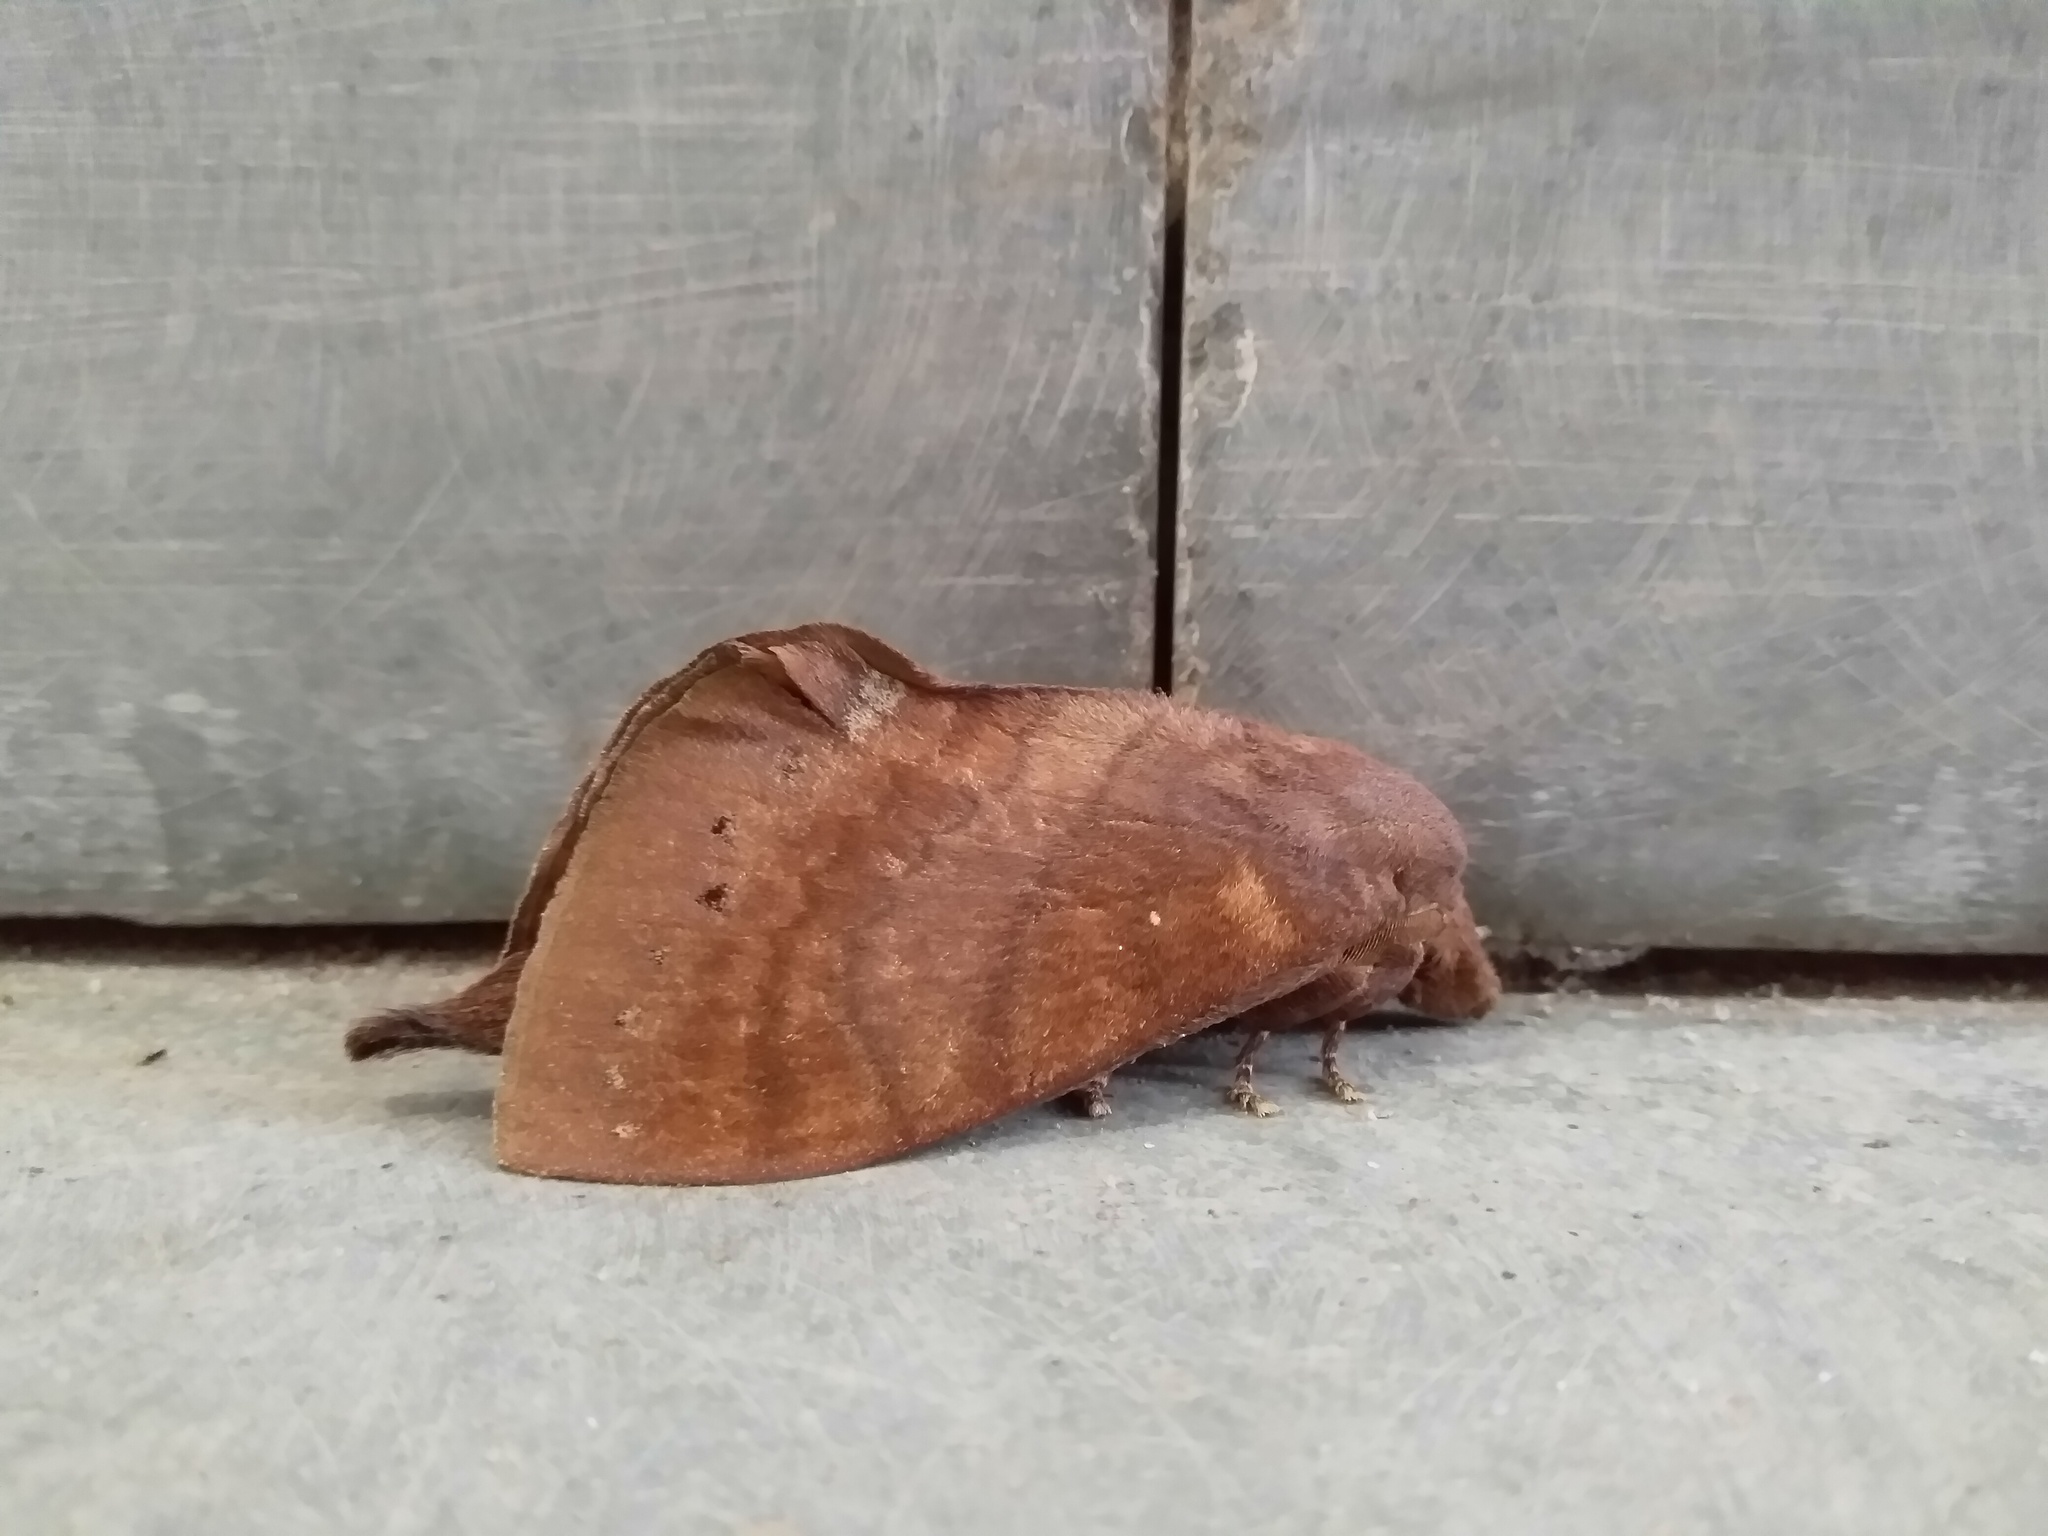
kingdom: Animalia
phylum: Arthropoda
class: Insecta
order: Lepidoptera
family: Lasiocampidae
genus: Lebeda
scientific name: Lebeda trifascia
